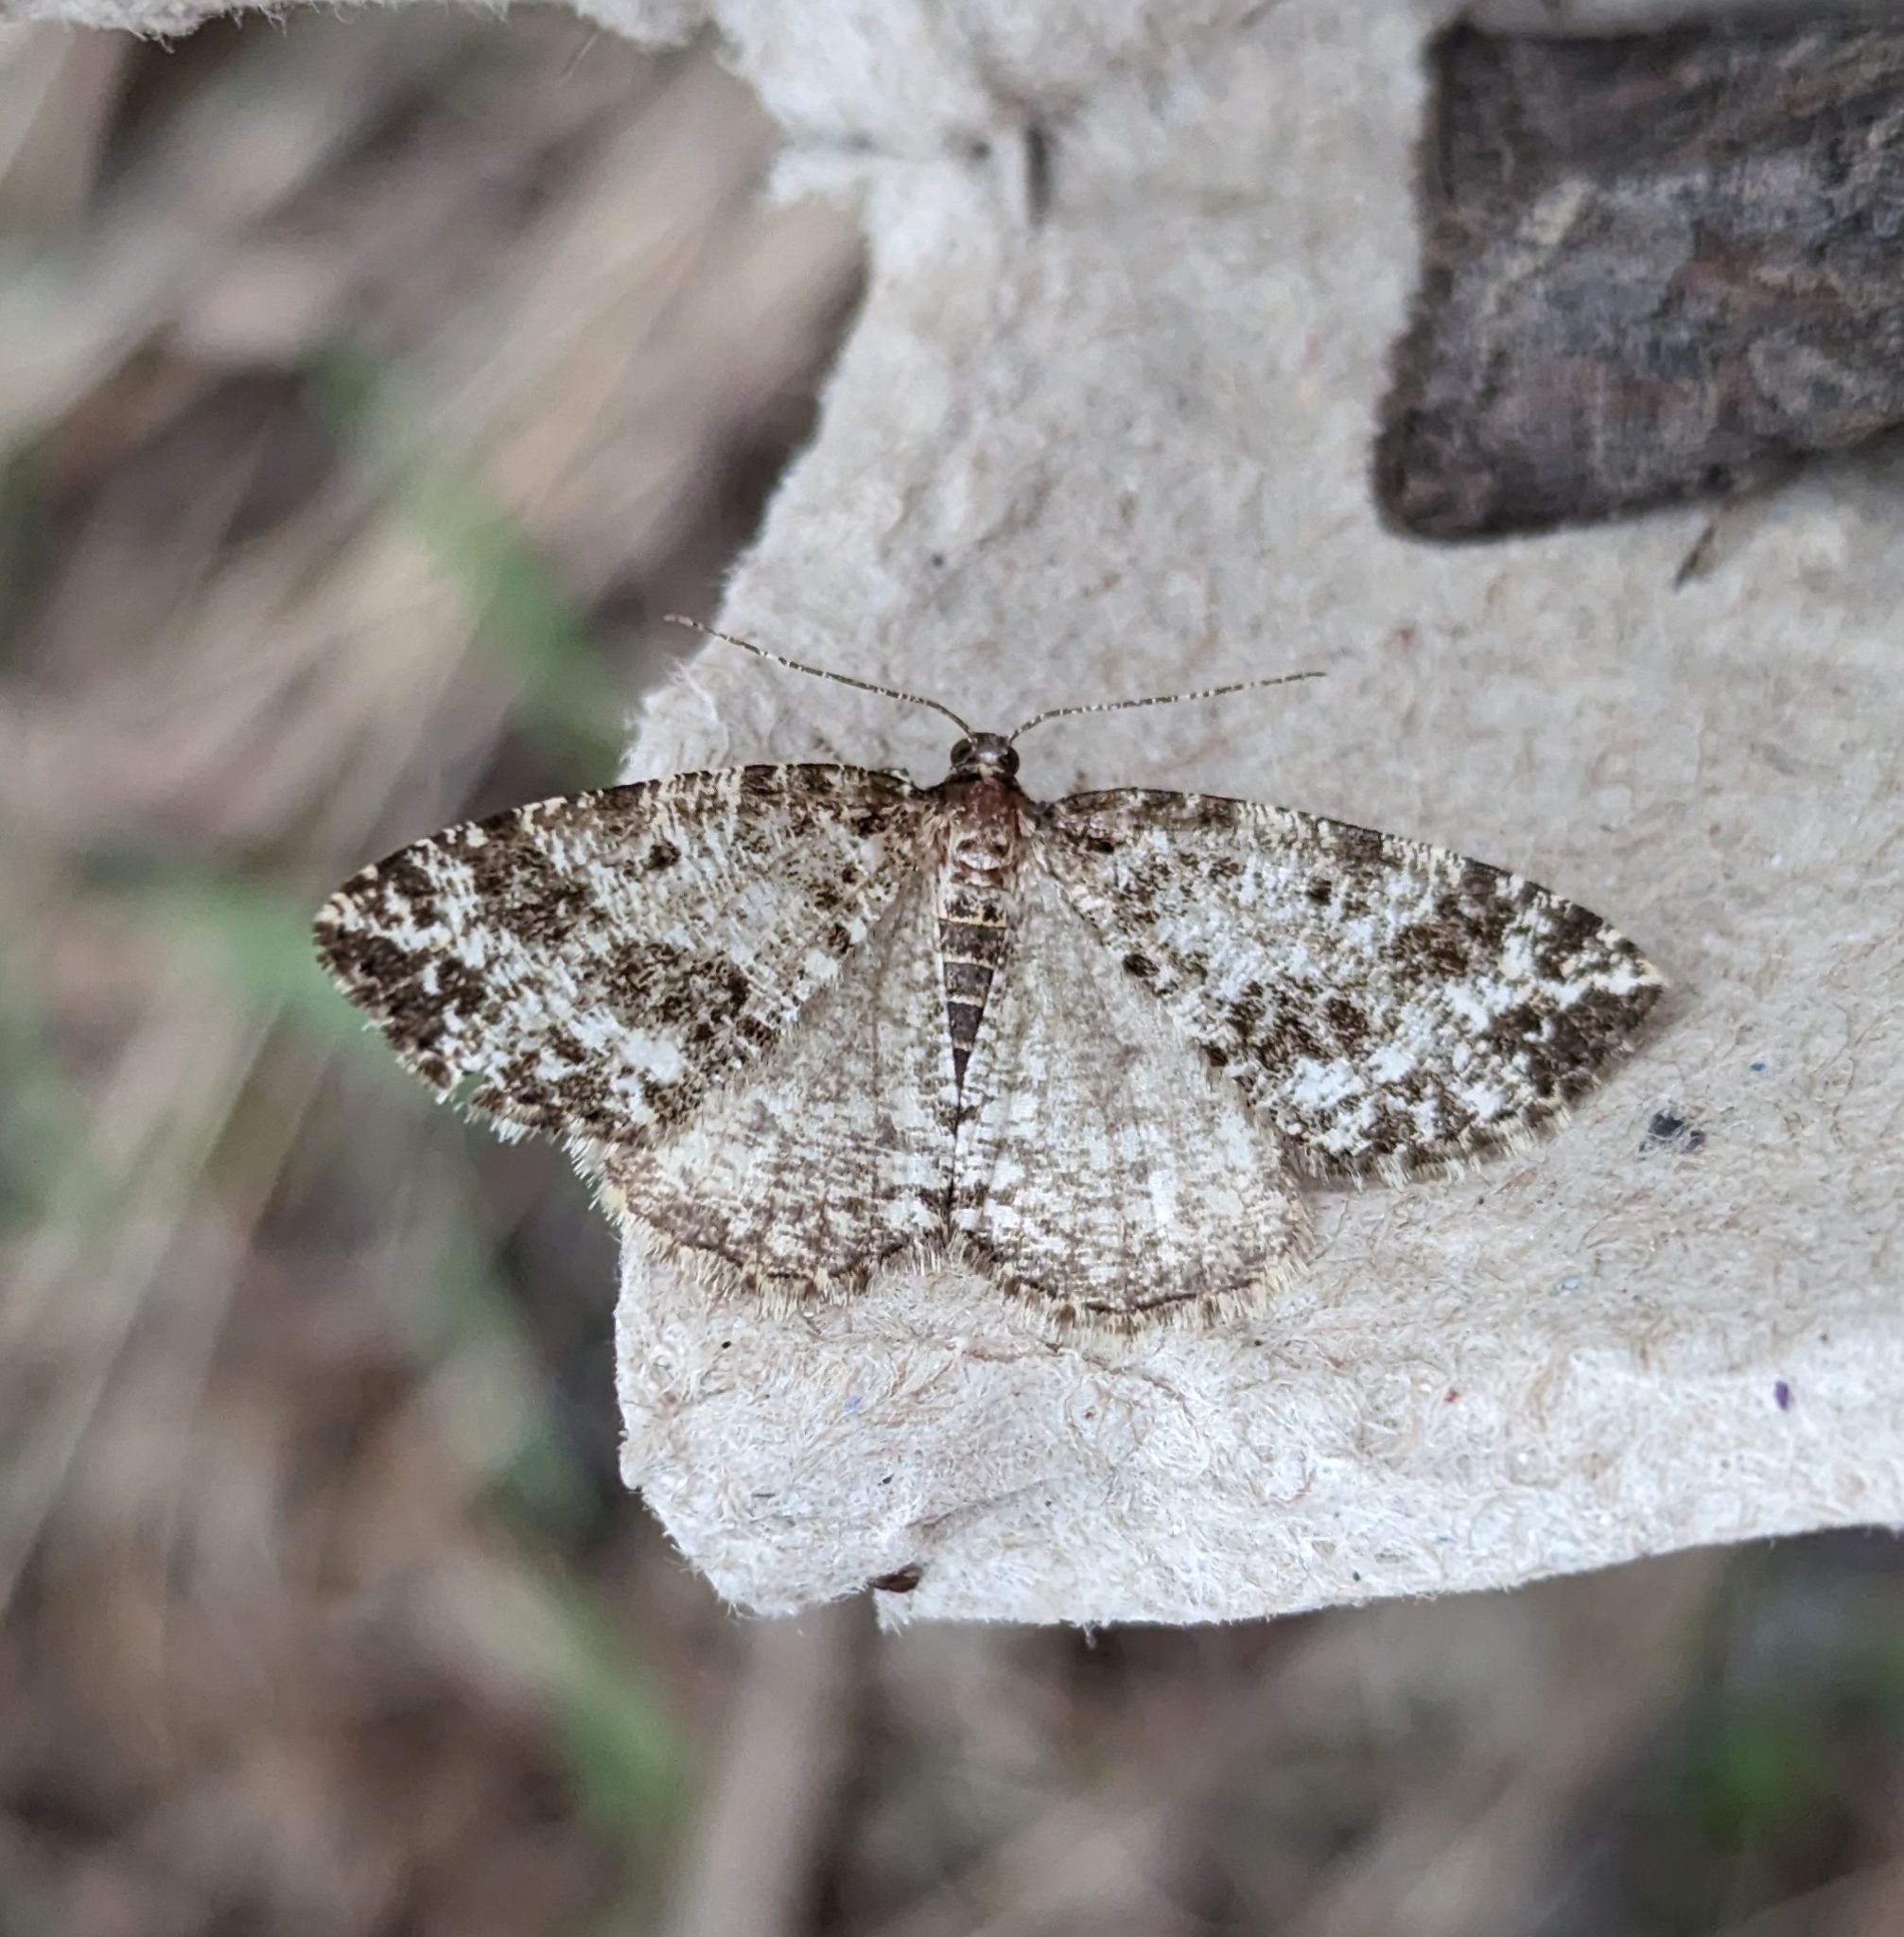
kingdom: Animalia
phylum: Arthropoda
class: Insecta
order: Lepidoptera
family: Geometridae
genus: Orthofidonia
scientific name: Orthofidonia tinctaria
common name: Marbled wave
